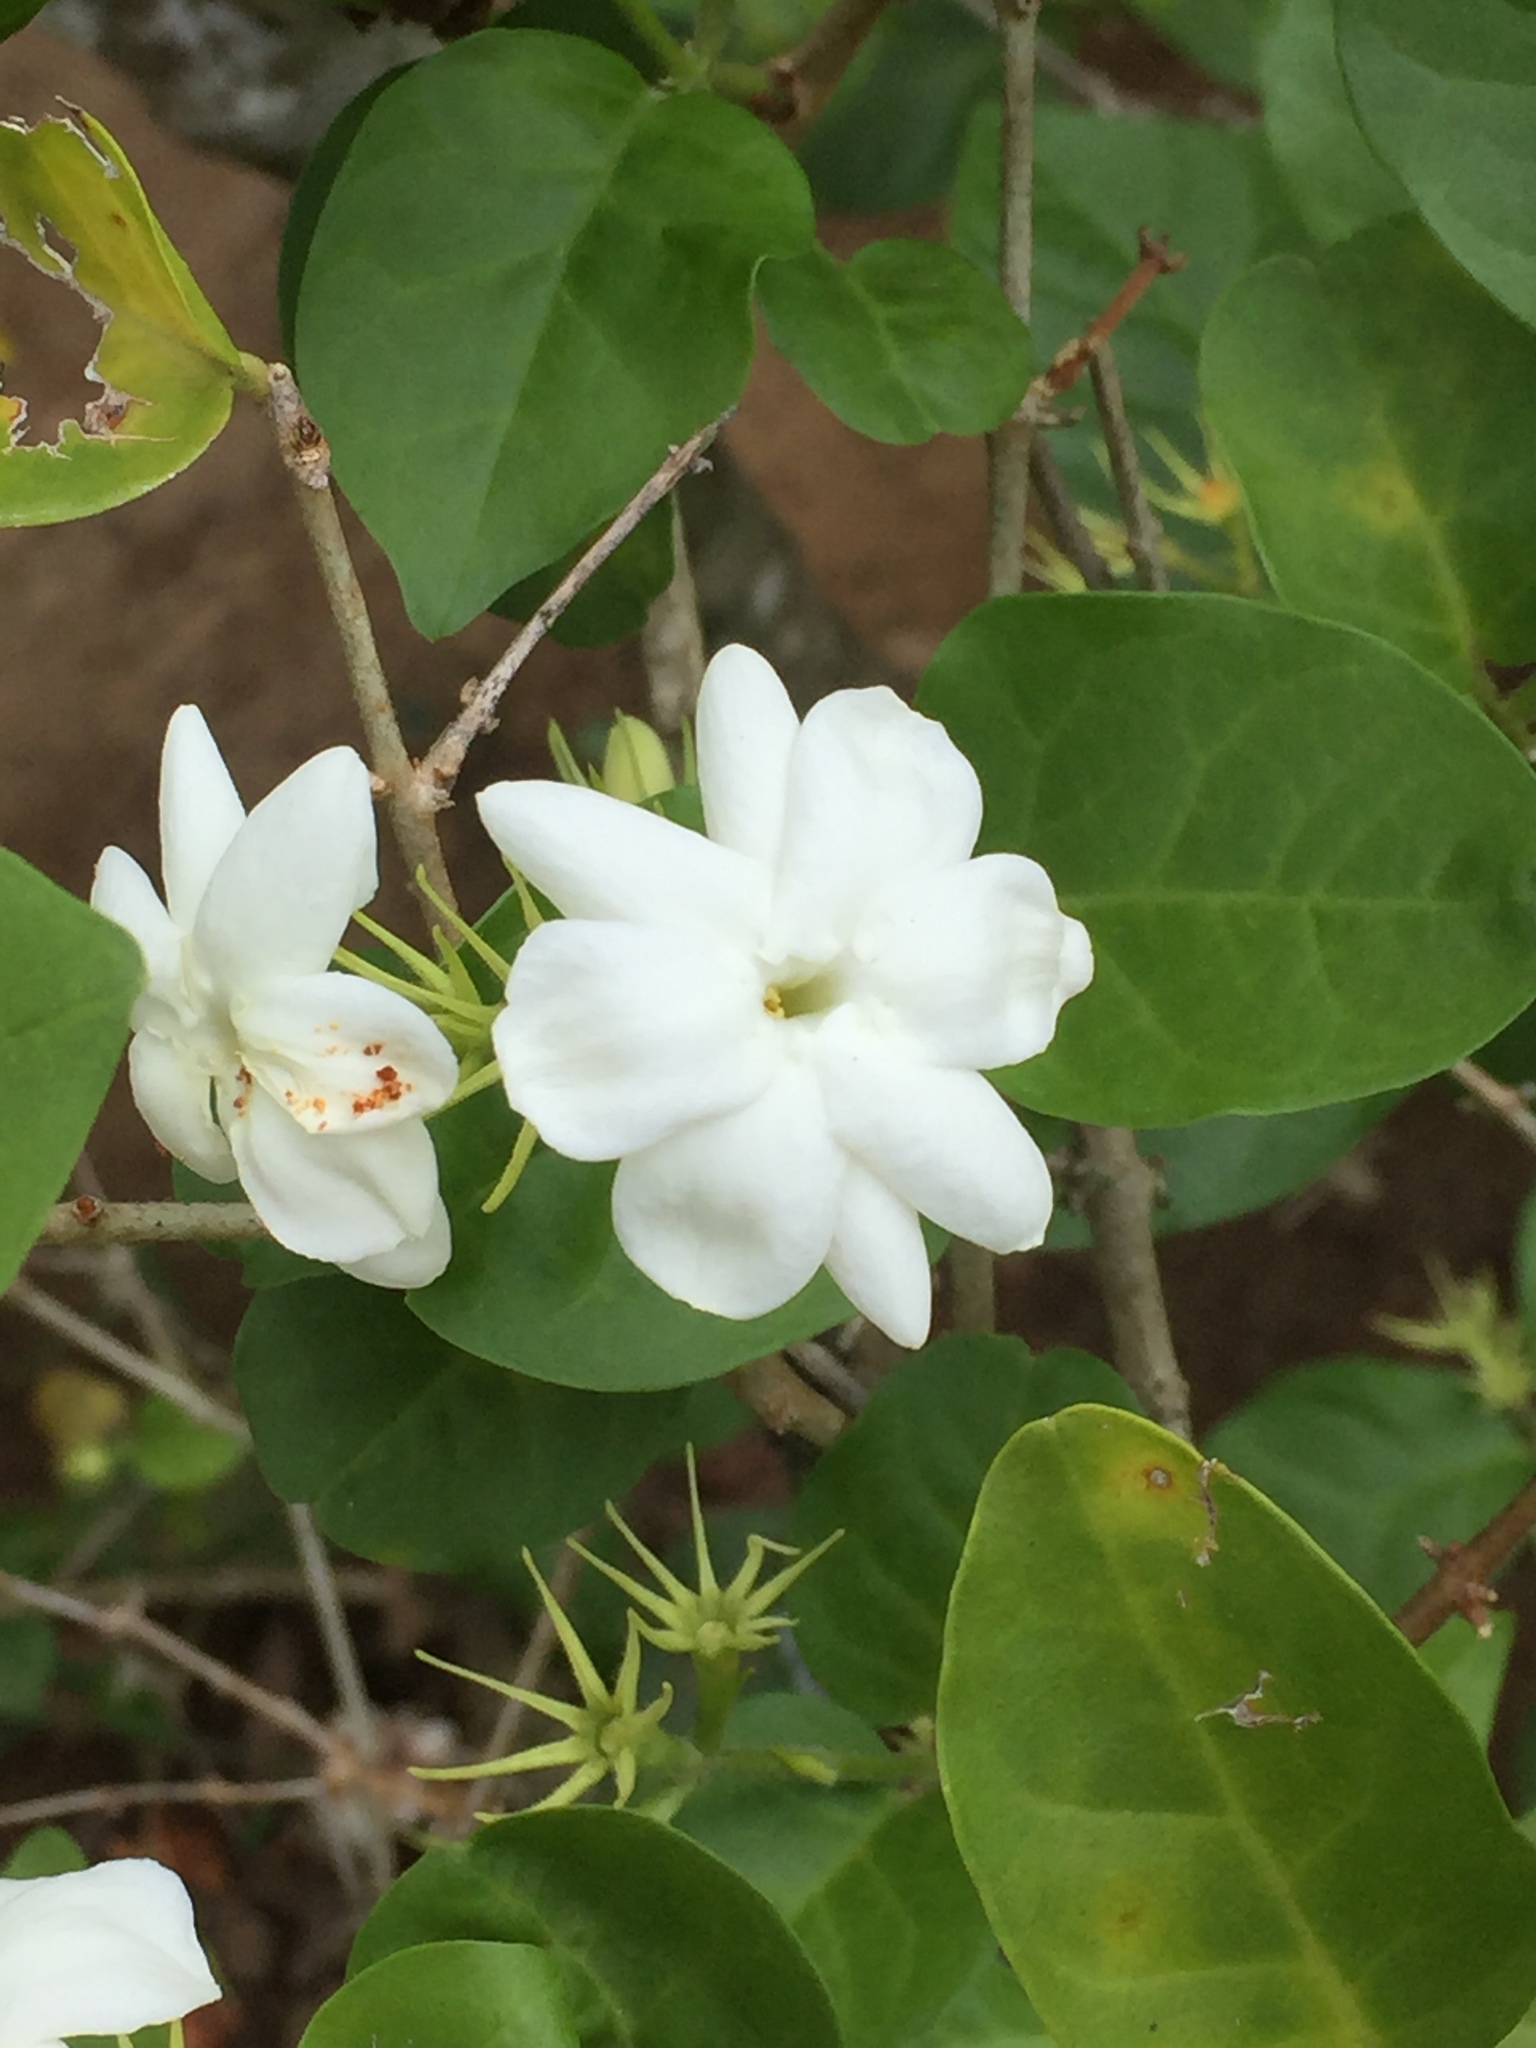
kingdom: Plantae
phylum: Tracheophyta
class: Magnoliopsida
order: Lamiales
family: Oleaceae
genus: Jasminum
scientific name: Jasminum sambac
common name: Arabian jasmine
